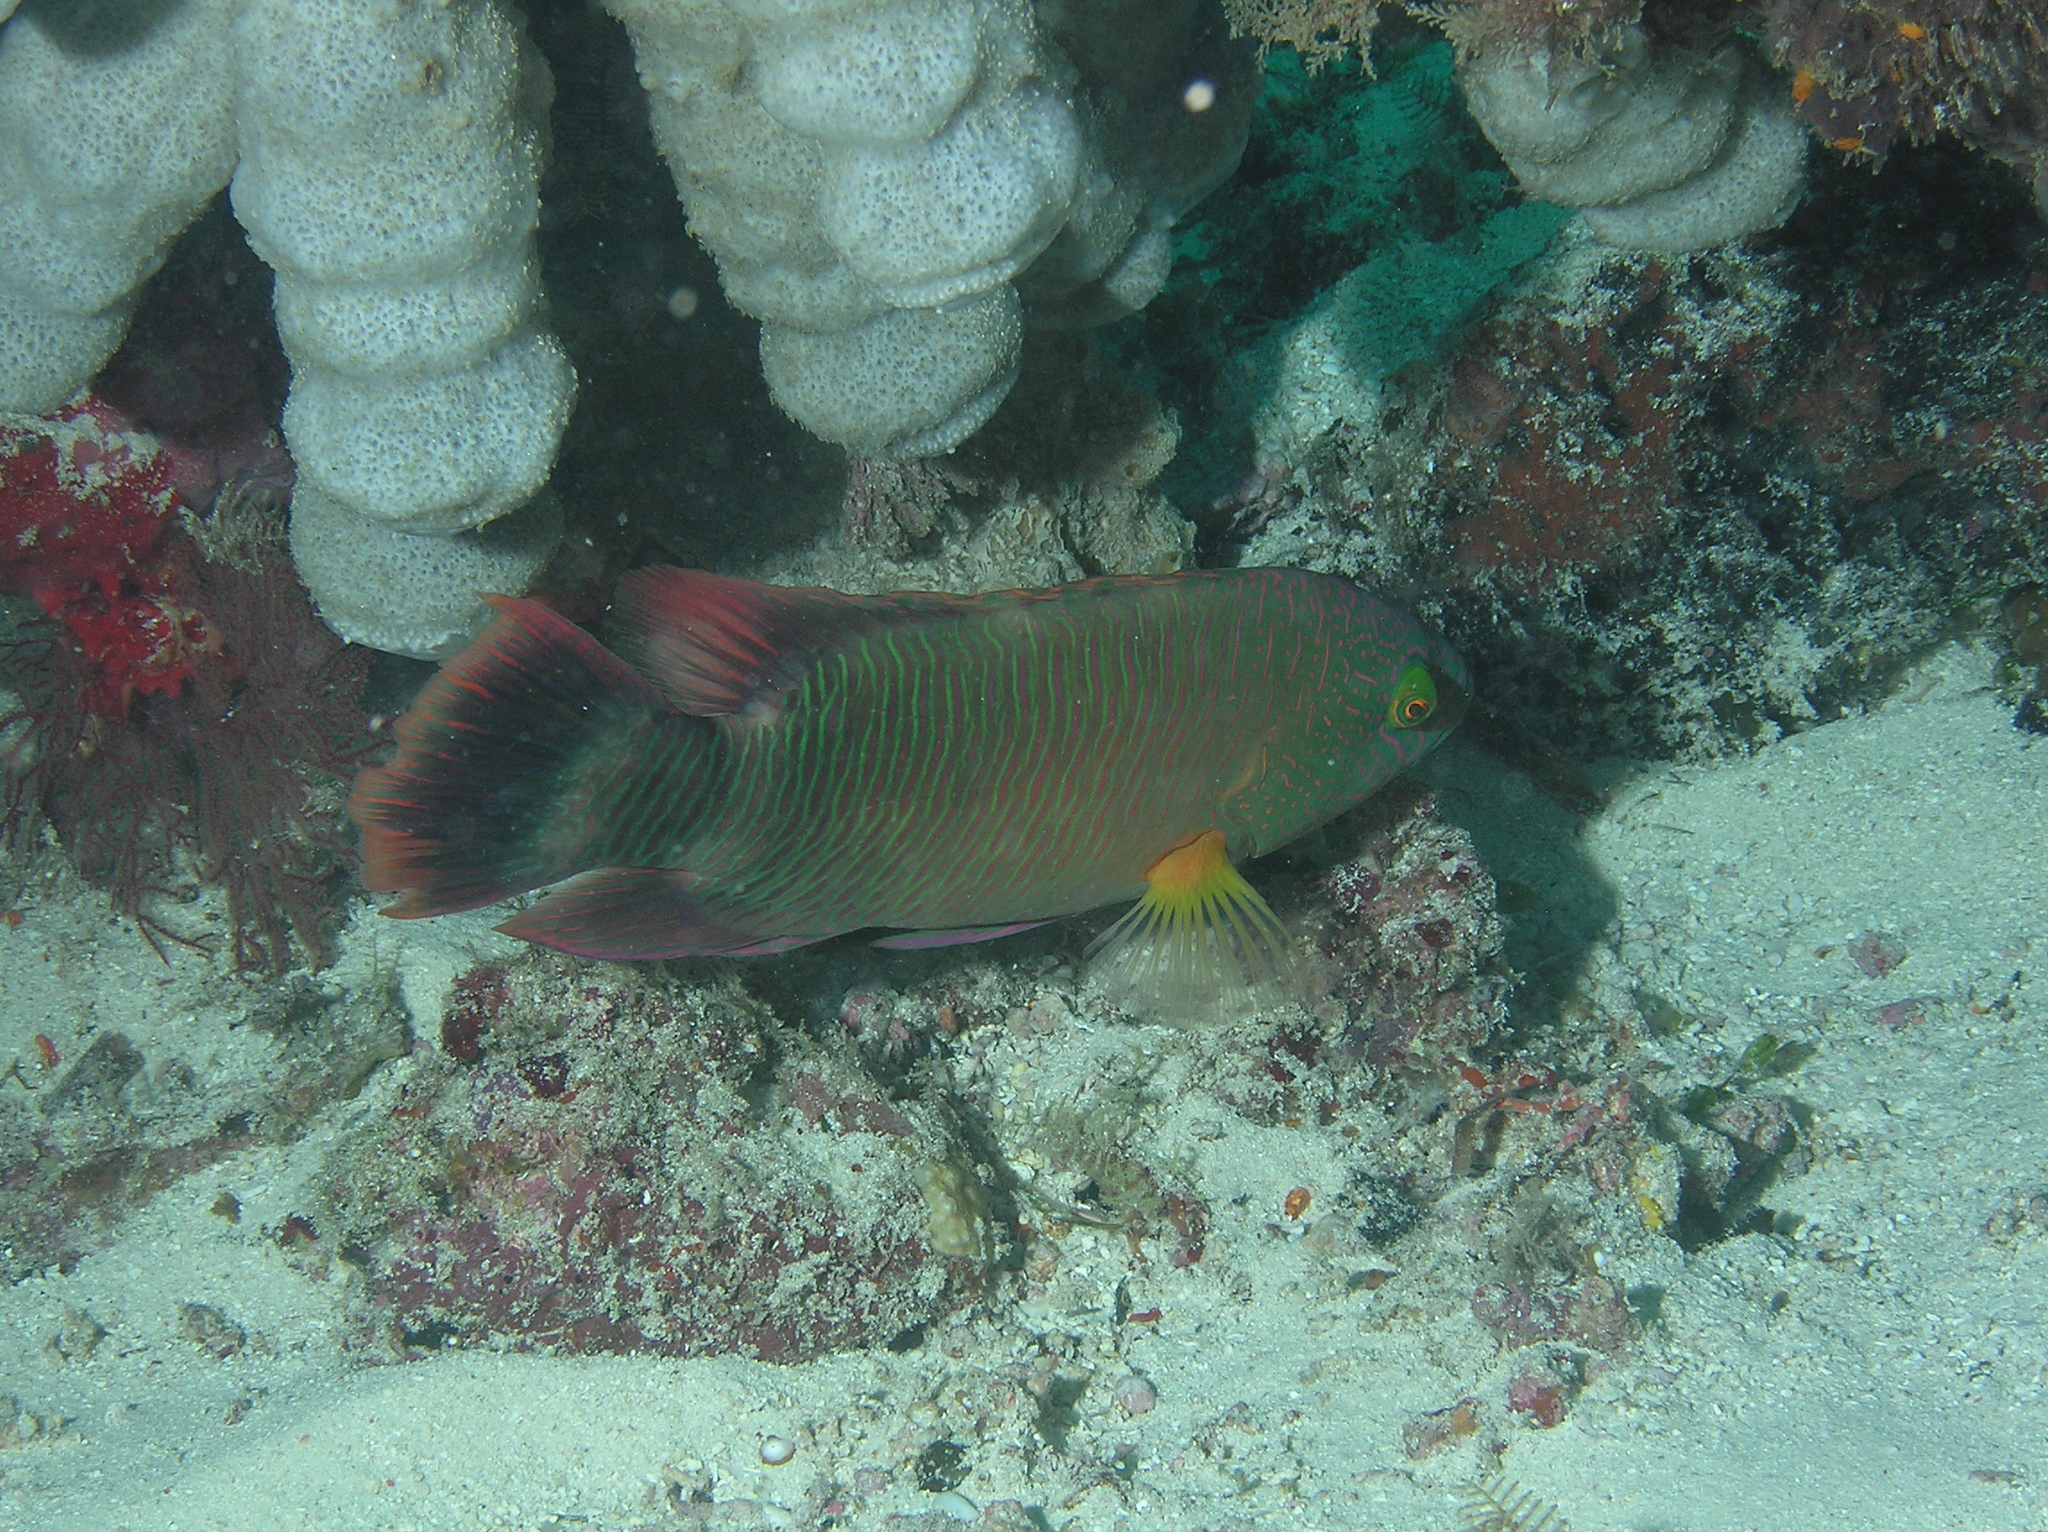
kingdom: Animalia
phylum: Chordata
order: Perciformes
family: Labridae
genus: Cheilinus
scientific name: Cheilinus trilobatus
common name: Tripletail maori wrasse
